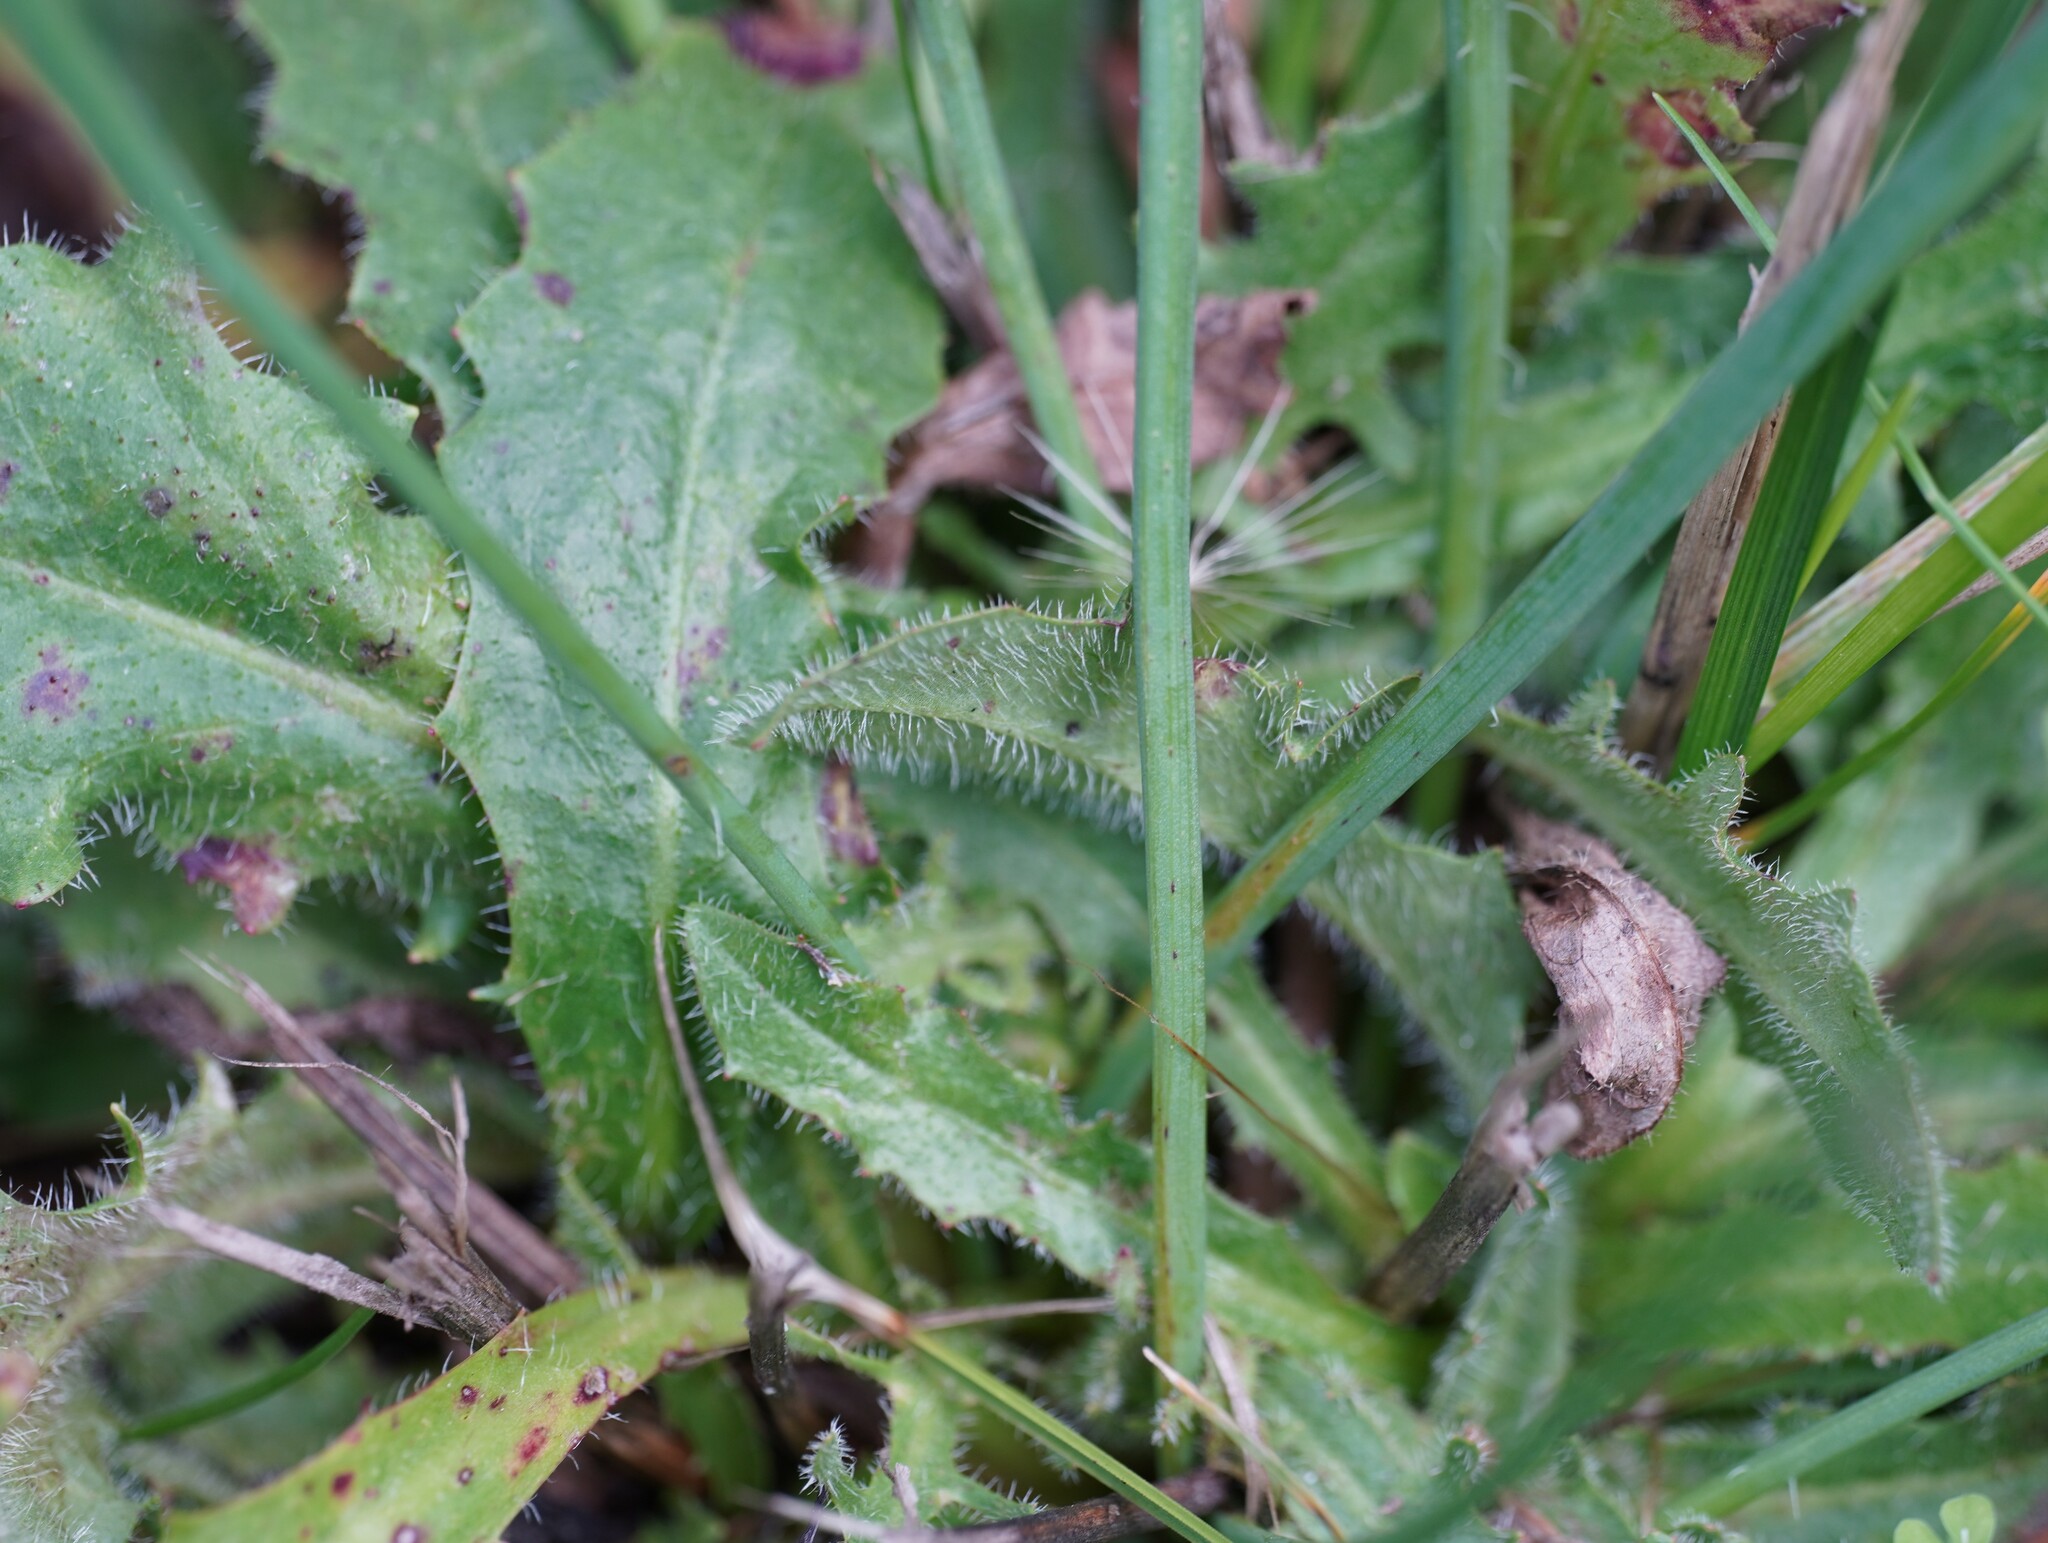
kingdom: Plantae
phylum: Tracheophyta
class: Magnoliopsida
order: Asterales
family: Asteraceae
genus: Hypochaeris
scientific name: Hypochaeris radicata
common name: Flatweed
